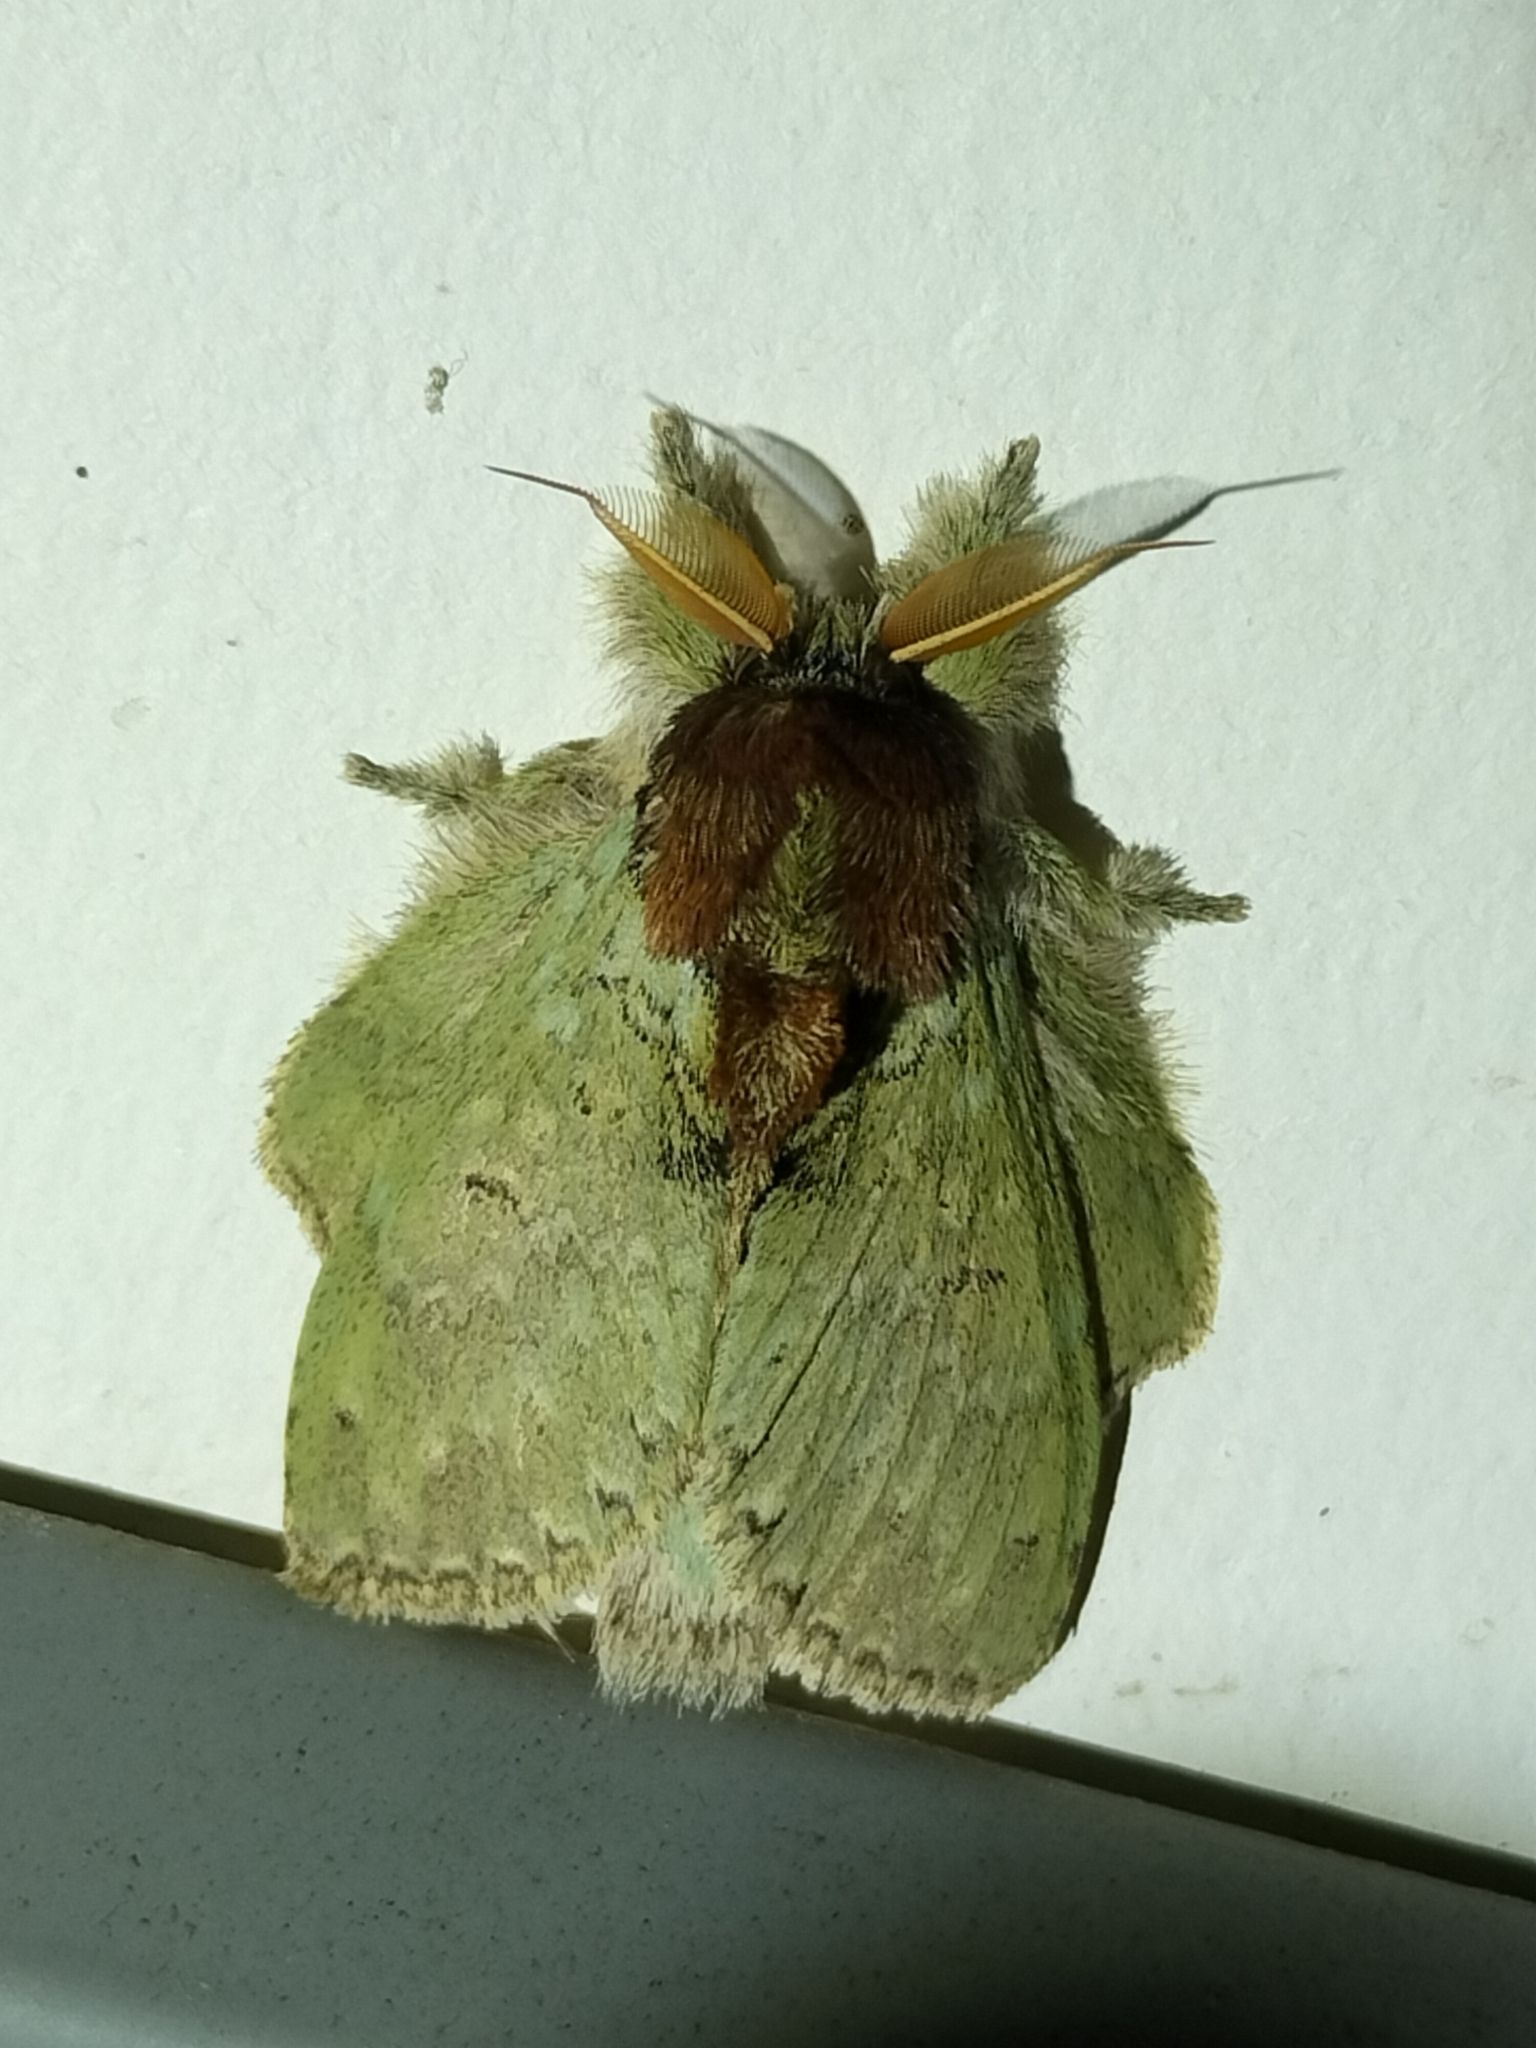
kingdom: Animalia
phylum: Arthropoda
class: Insecta
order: Lepidoptera
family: Notodontidae
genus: Stauropus
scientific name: Stauropus Neostauropus viridissimus
